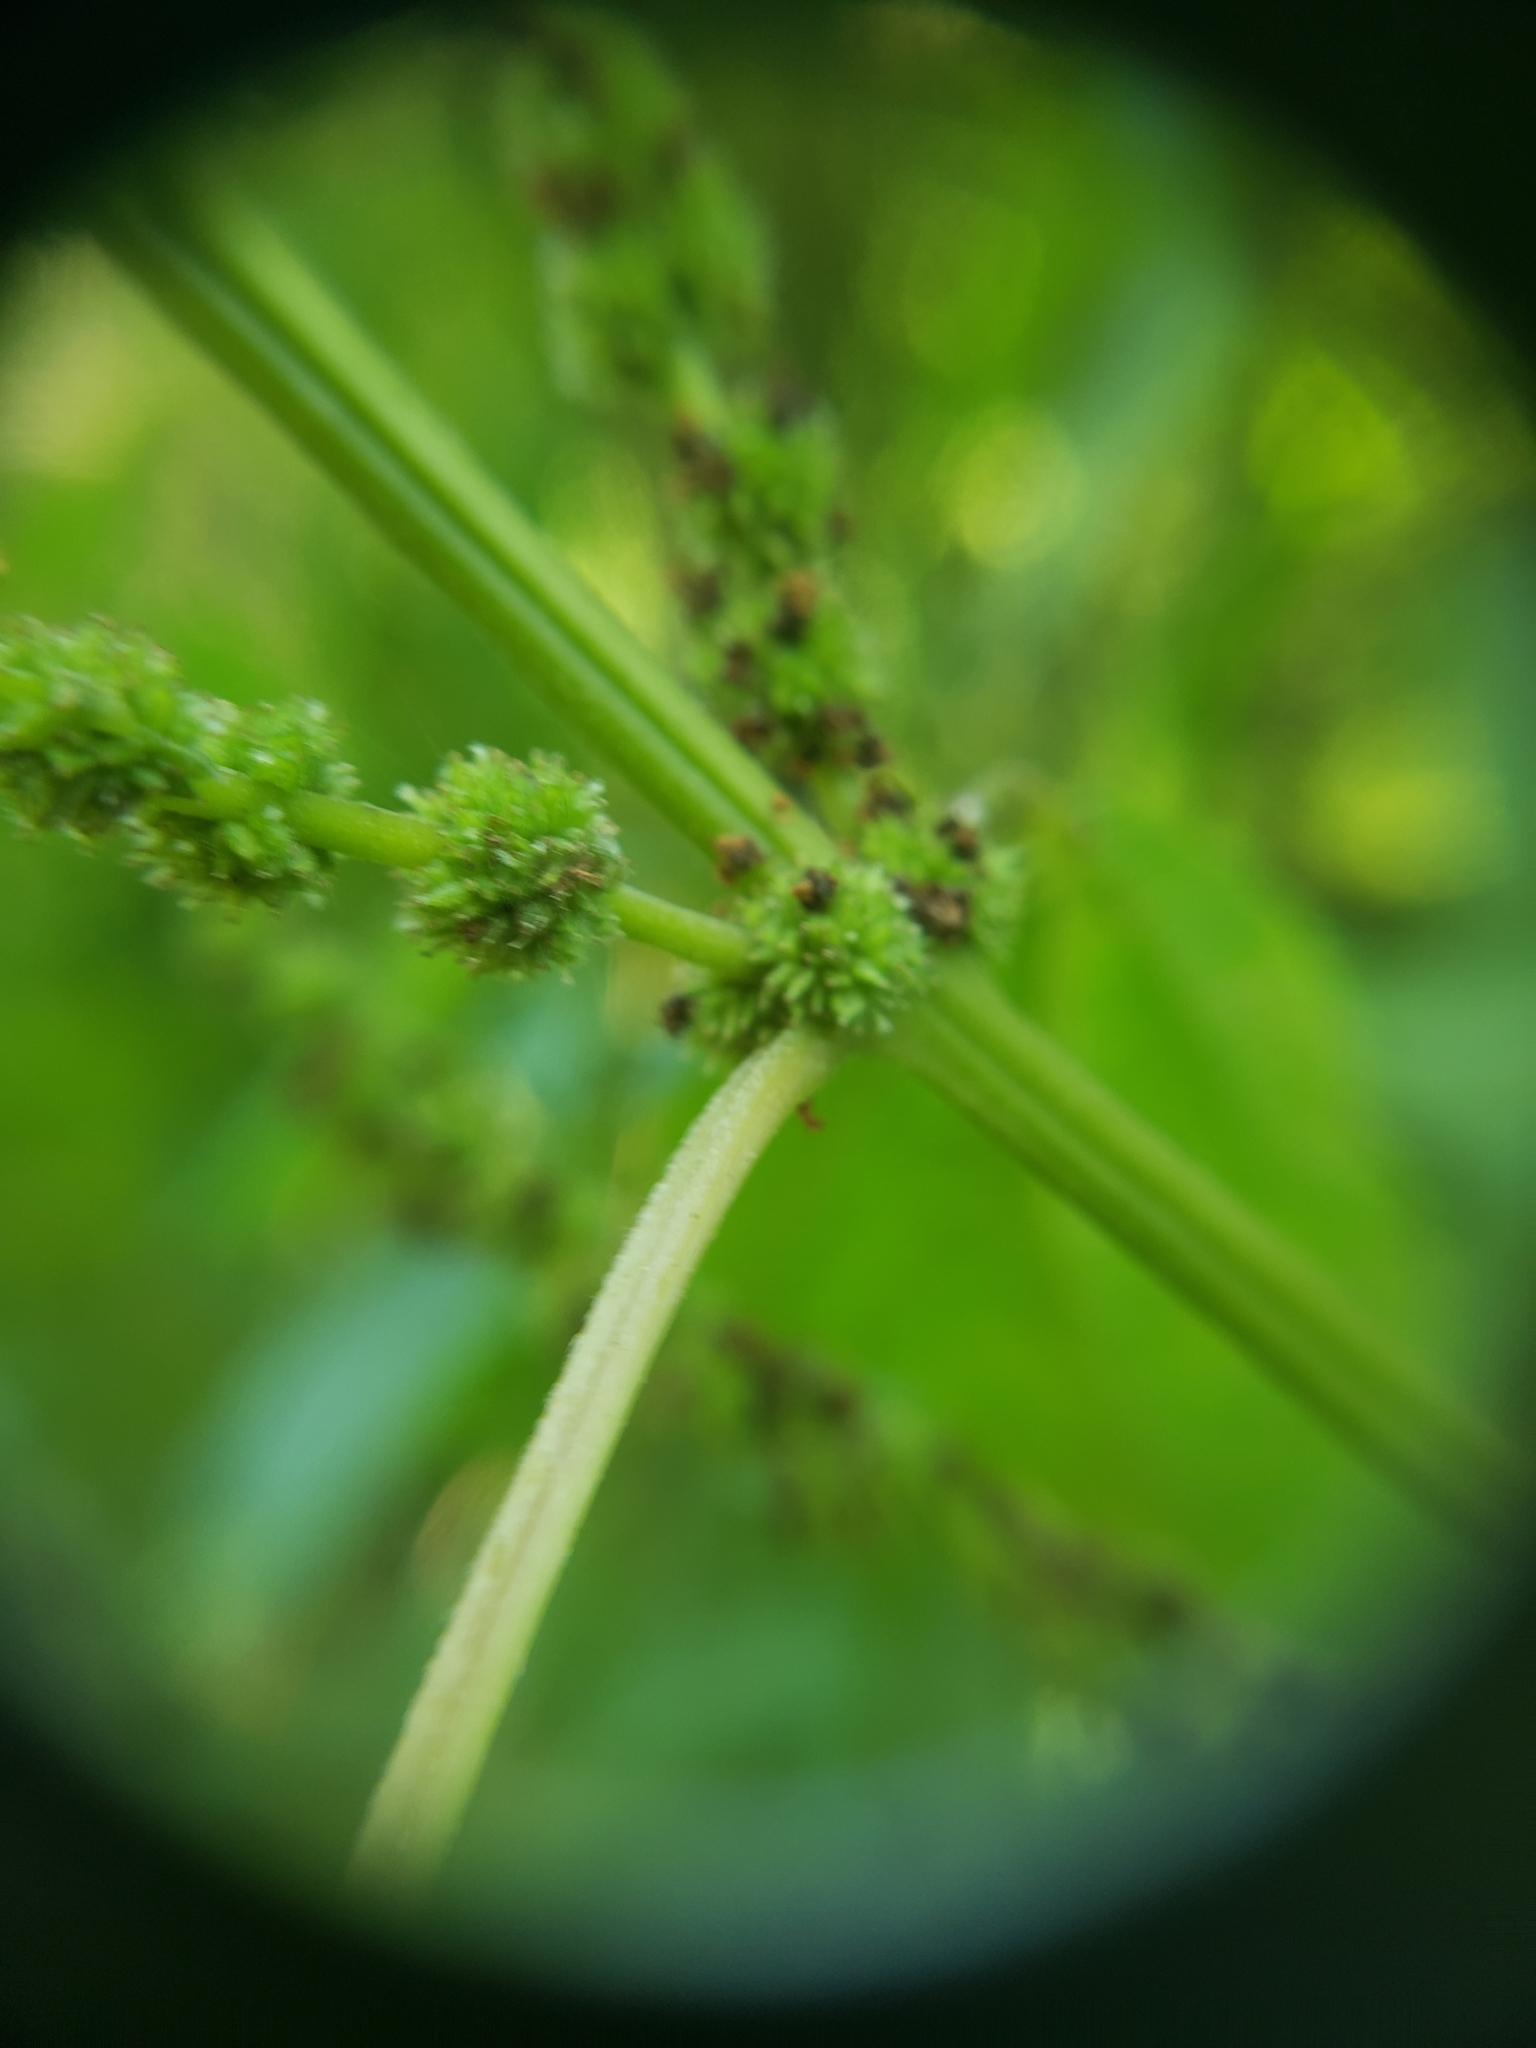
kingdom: Plantae
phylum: Tracheophyta
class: Magnoliopsida
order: Rosales
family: Urticaceae
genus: Boehmeria
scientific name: Boehmeria cylindrica
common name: Bog-hemp
